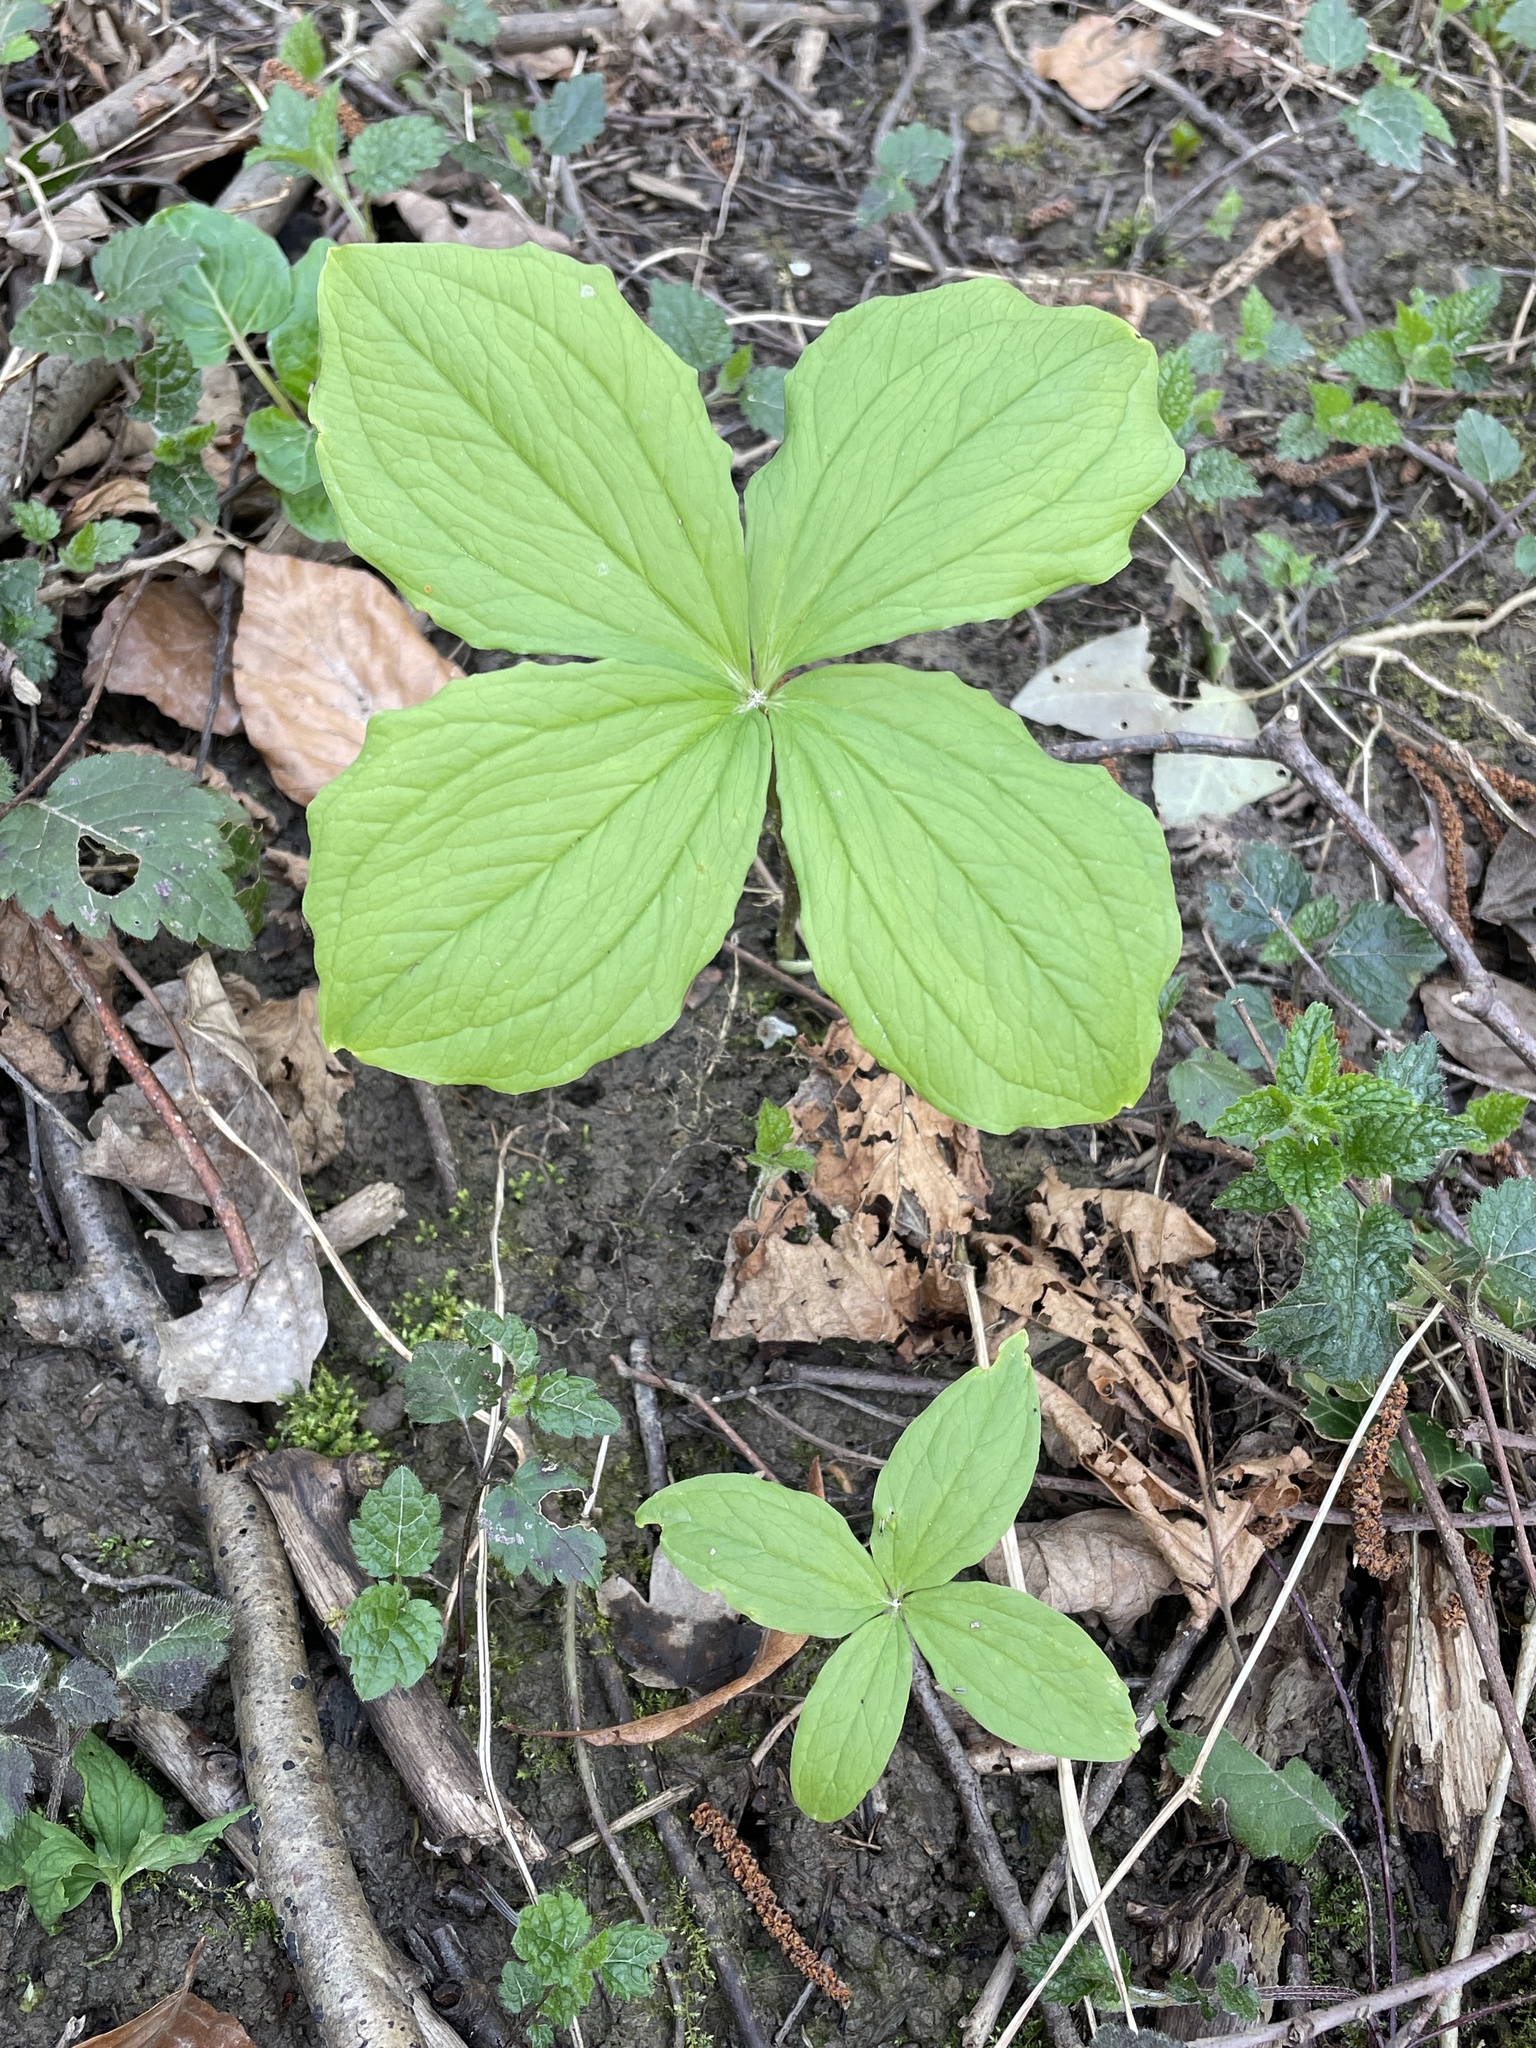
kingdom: Plantae
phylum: Tracheophyta
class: Liliopsida
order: Liliales
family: Melanthiaceae
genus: Paris
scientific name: Paris quadrifolia
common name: Herb-paris
